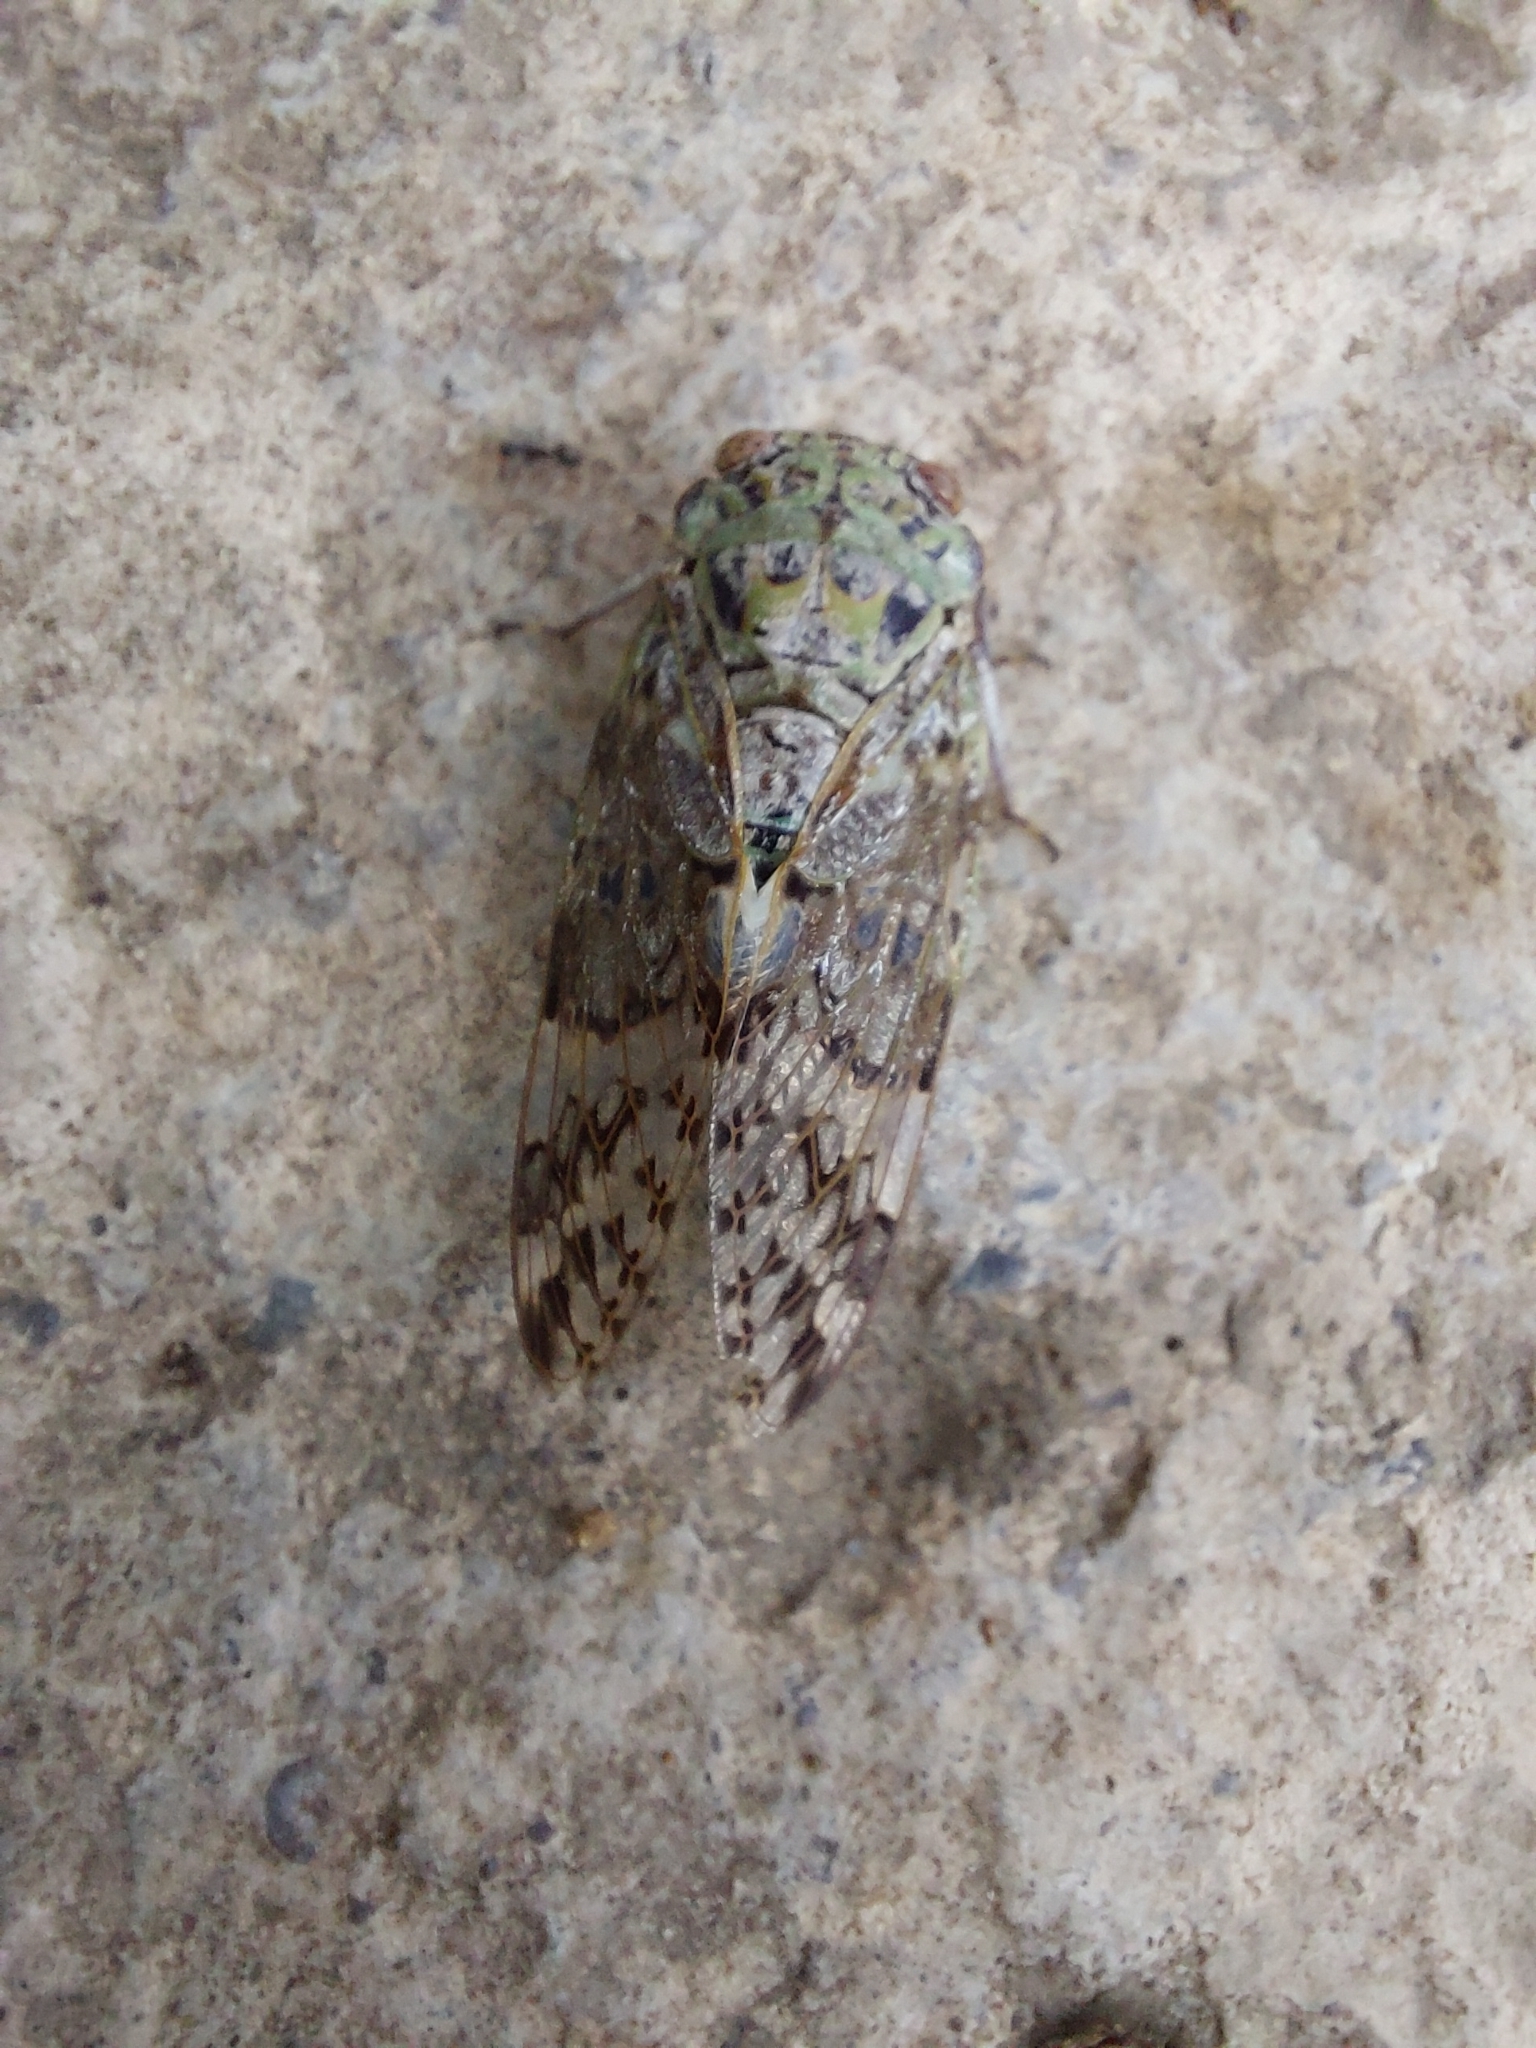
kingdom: Animalia
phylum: Arthropoda
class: Insecta
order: Hemiptera
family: Cicadidae
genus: Platypleura
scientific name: Platypleura takasagona
